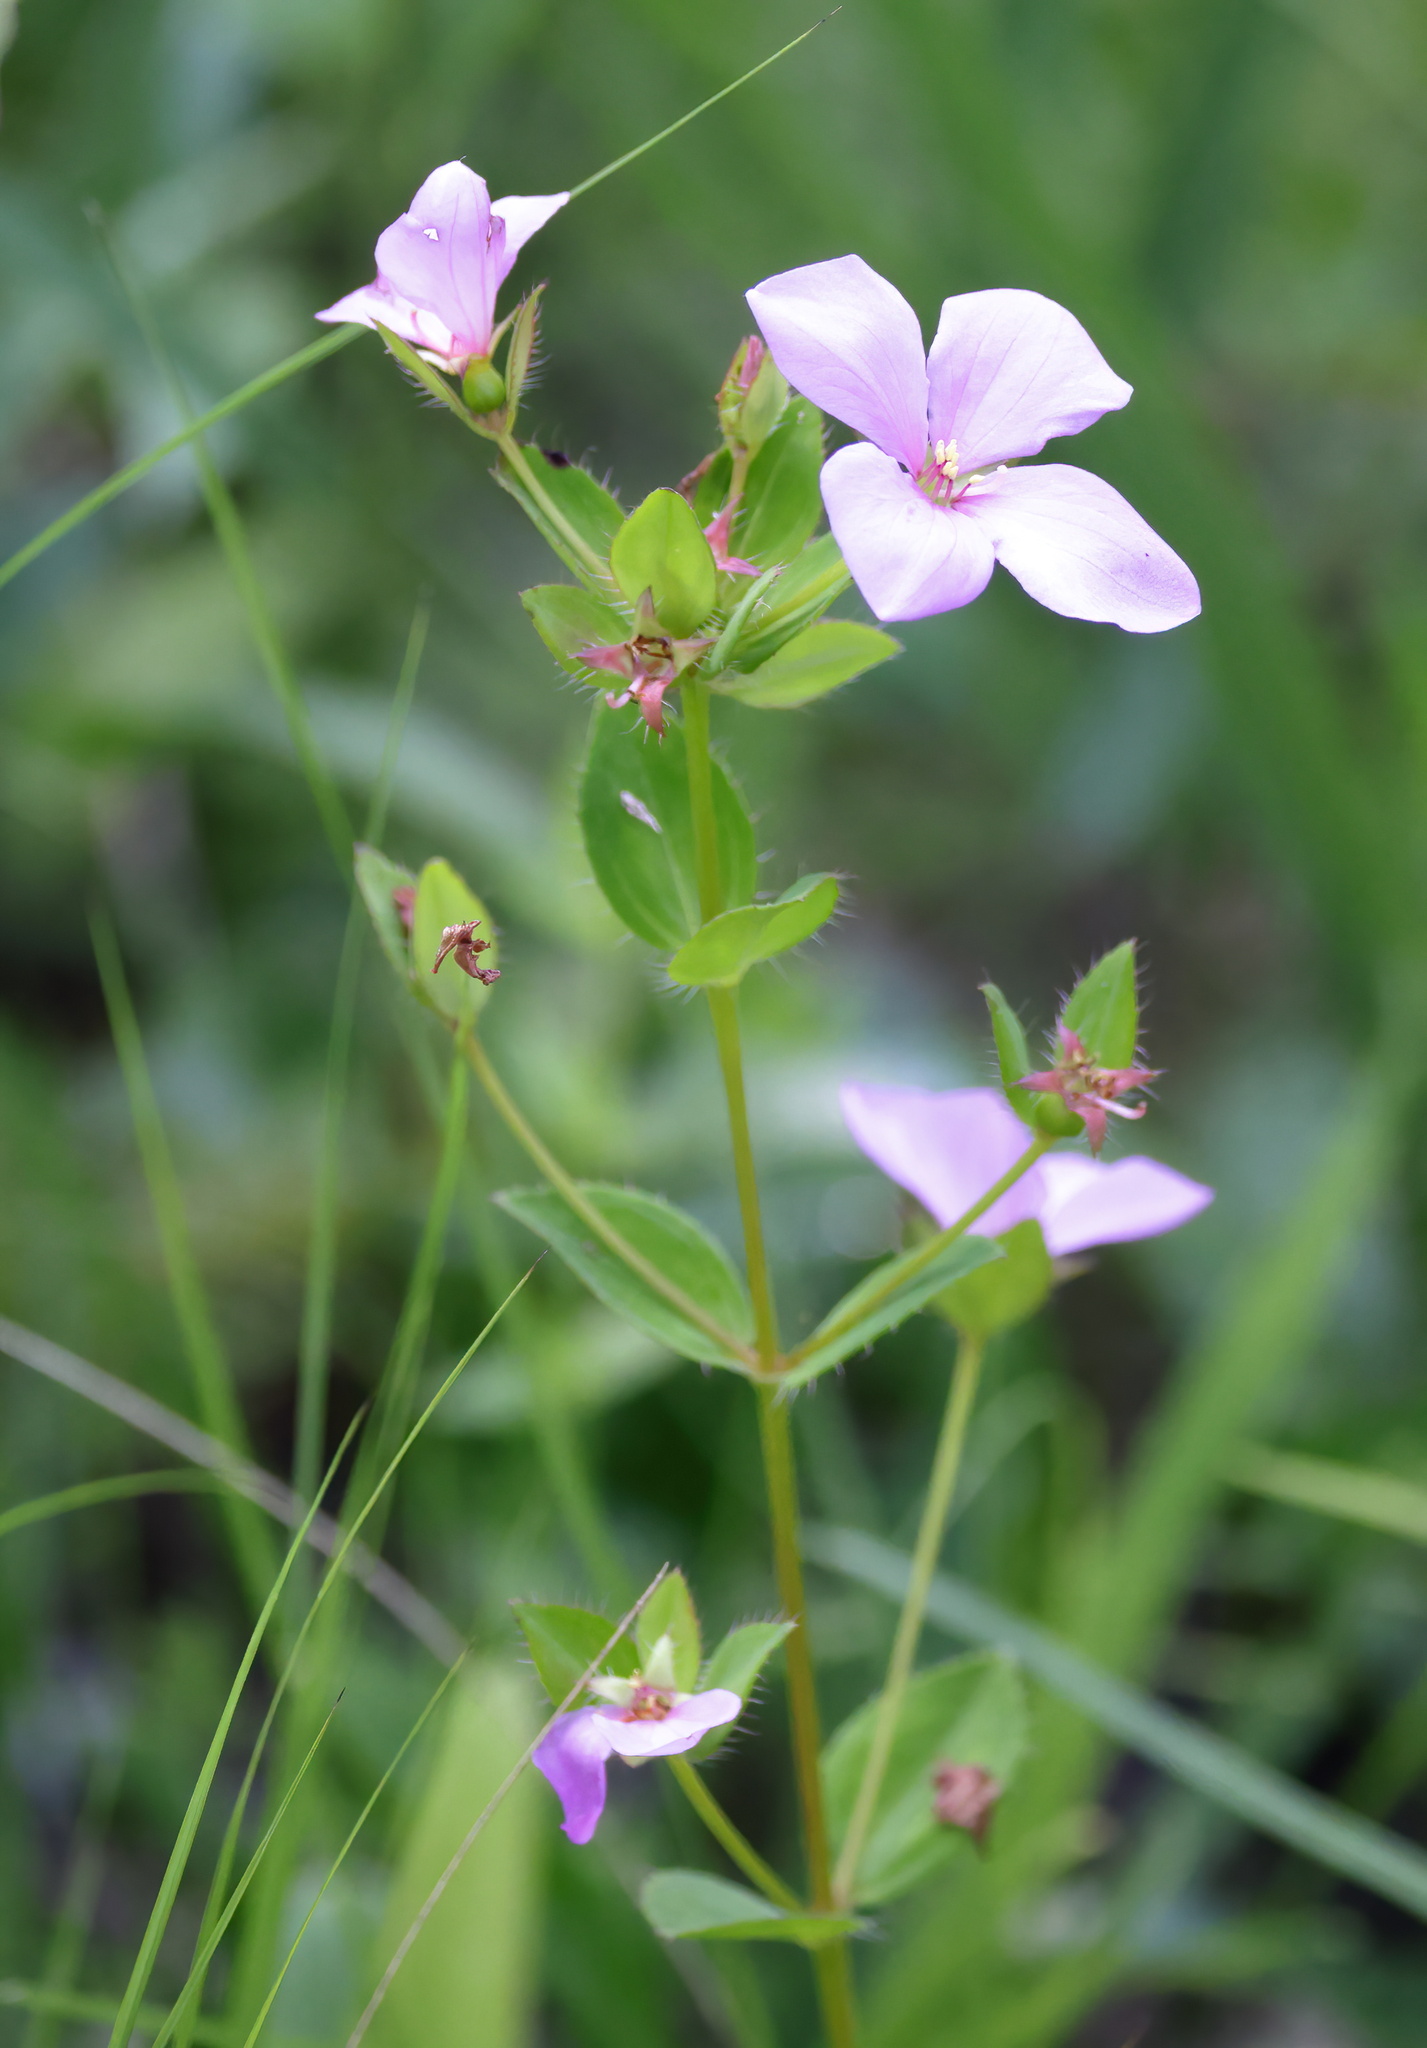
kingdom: Plantae
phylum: Tracheophyta
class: Magnoliopsida
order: Myrtales
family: Melastomataceae
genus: Rhexia
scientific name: Rhexia petiolata
